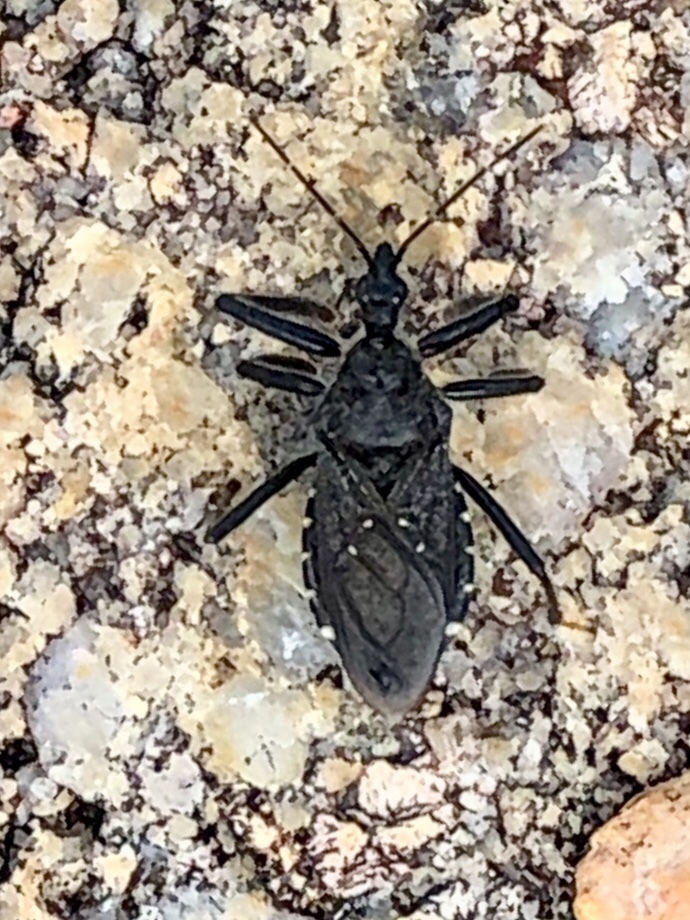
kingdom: Animalia
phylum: Arthropoda
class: Insecta
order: Hemiptera
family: Reduviidae
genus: Apiomerus
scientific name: Apiomerus longispinis
